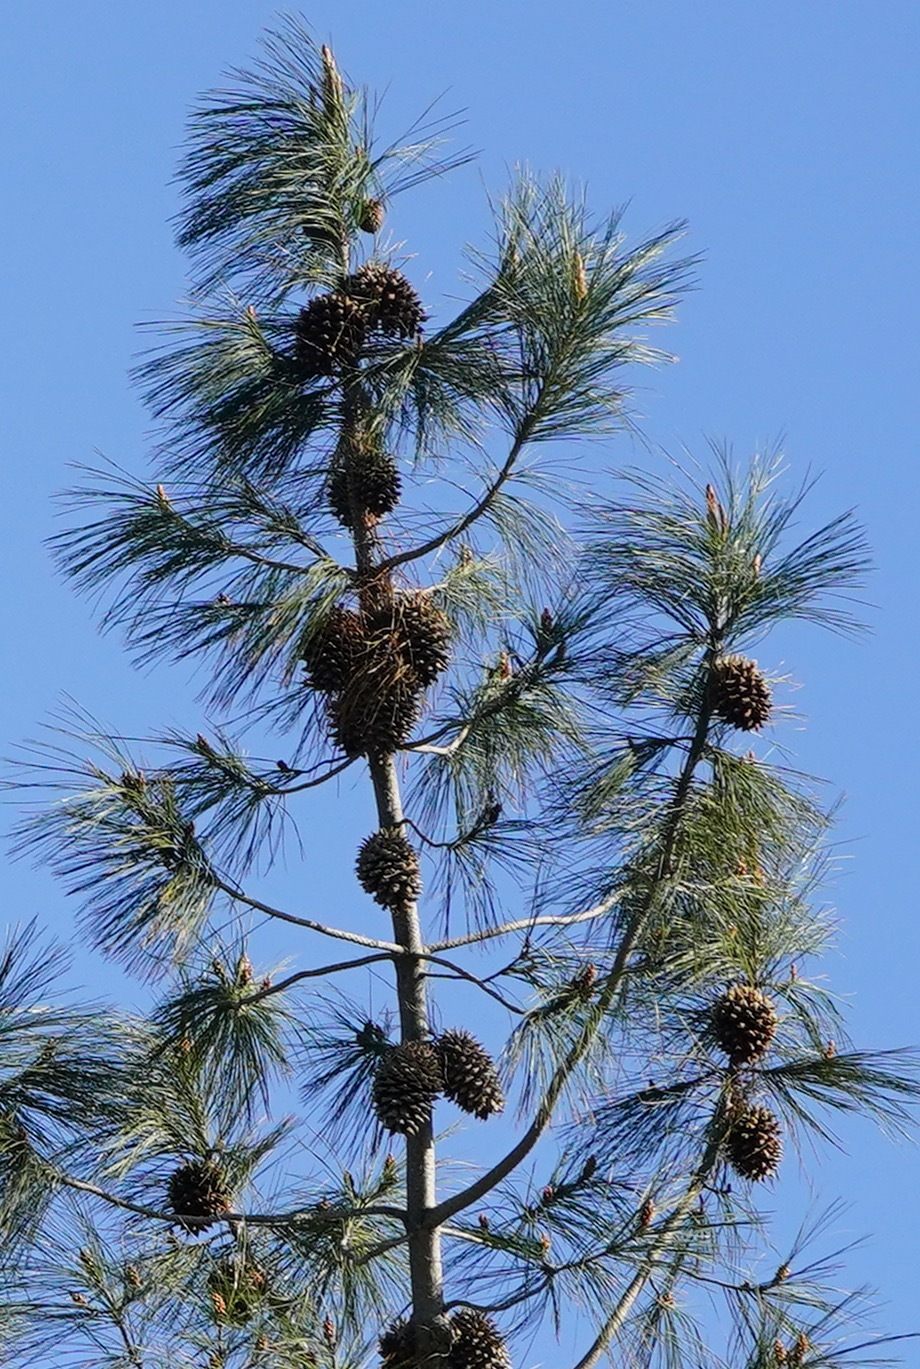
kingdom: Plantae
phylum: Tracheophyta
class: Pinopsida
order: Pinales
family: Pinaceae
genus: Pinus
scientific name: Pinus sabiniana
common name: Bull pine
